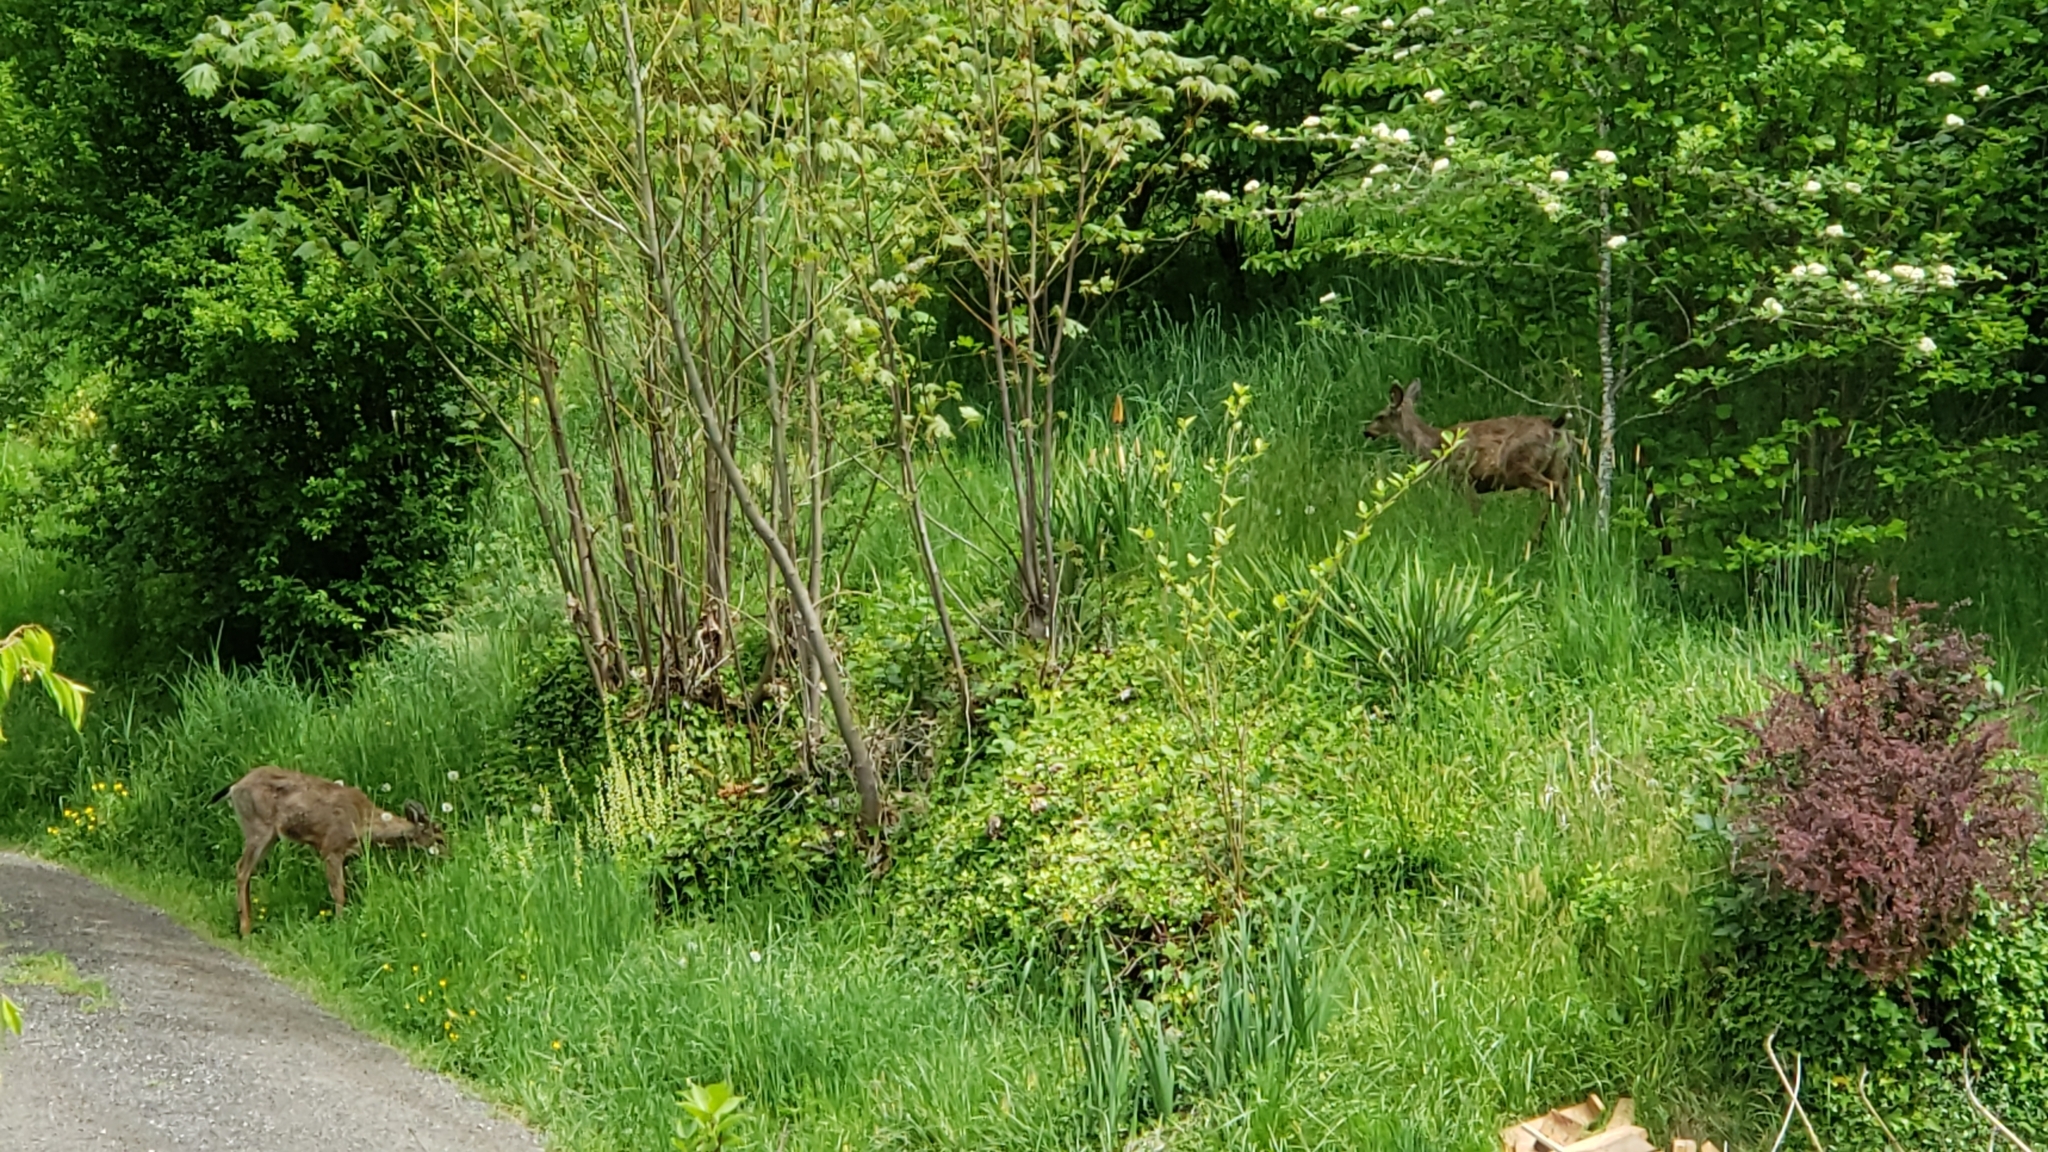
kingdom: Animalia
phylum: Chordata
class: Mammalia
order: Artiodactyla
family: Cervidae
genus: Odocoileus
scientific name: Odocoileus hemionus
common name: Mule deer
